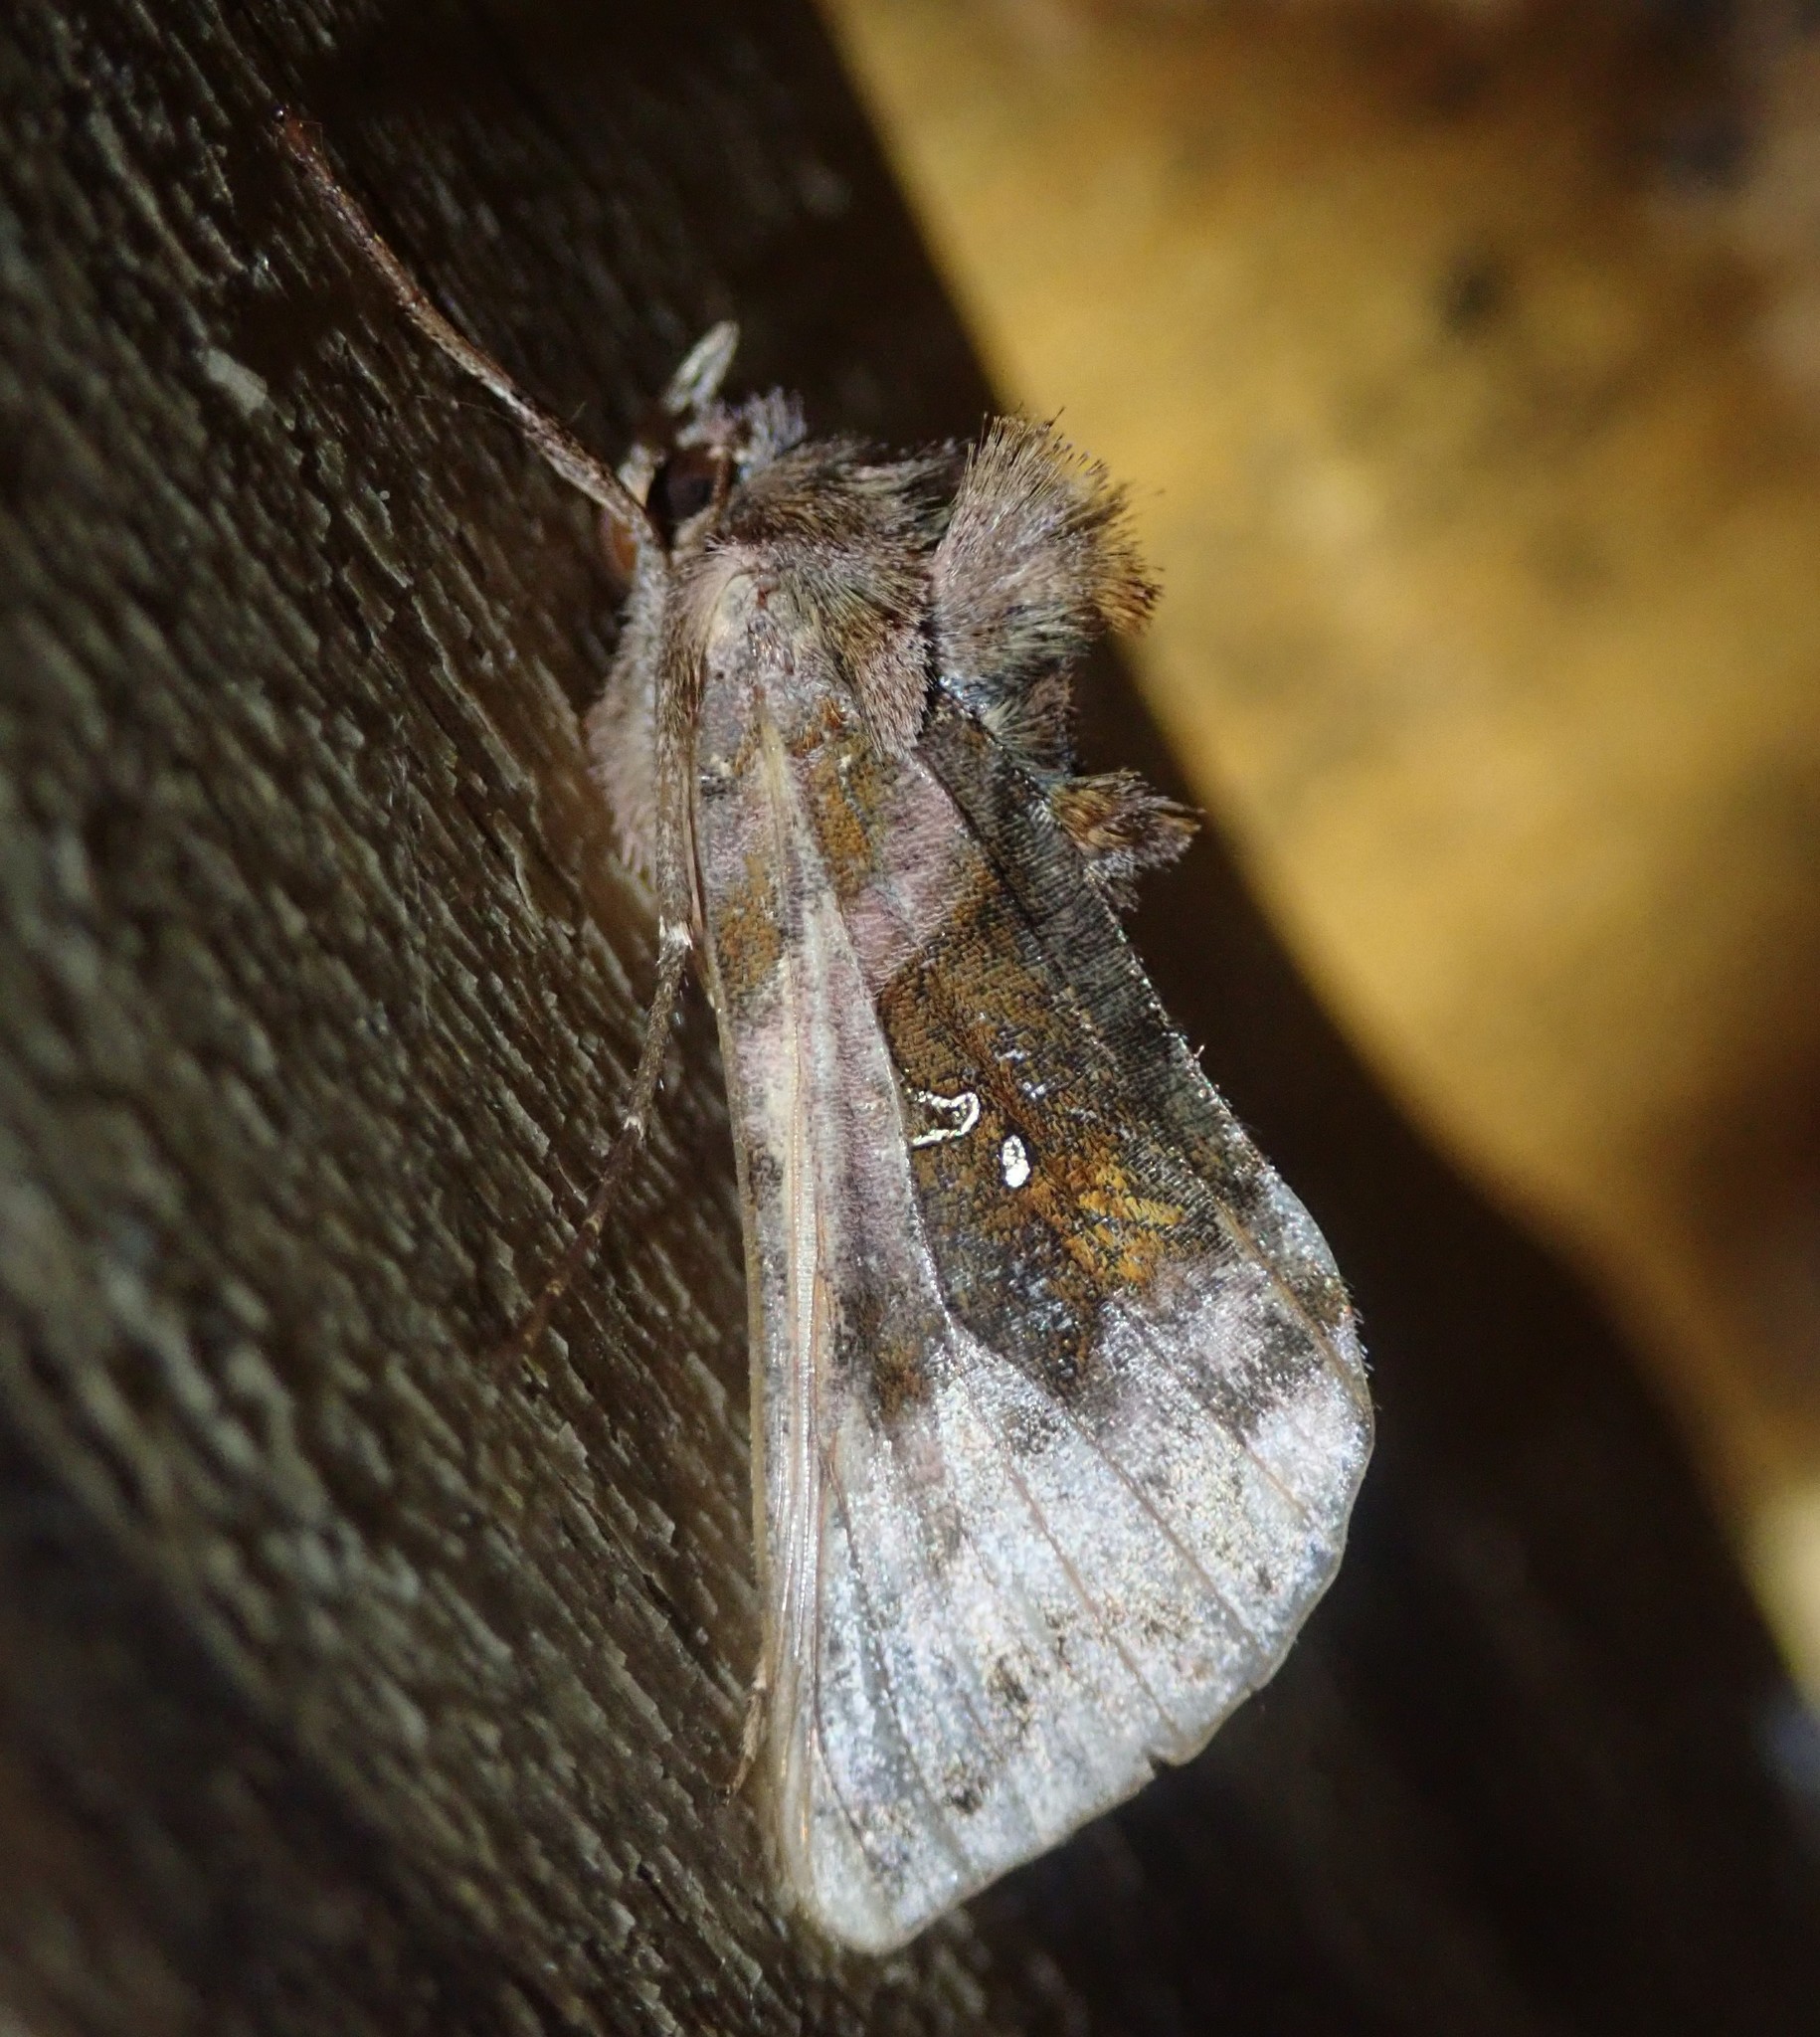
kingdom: Animalia
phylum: Arthropoda
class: Insecta
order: Lepidoptera
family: Noctuidae
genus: Autographa
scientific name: Autographa jota
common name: Plain golden y
